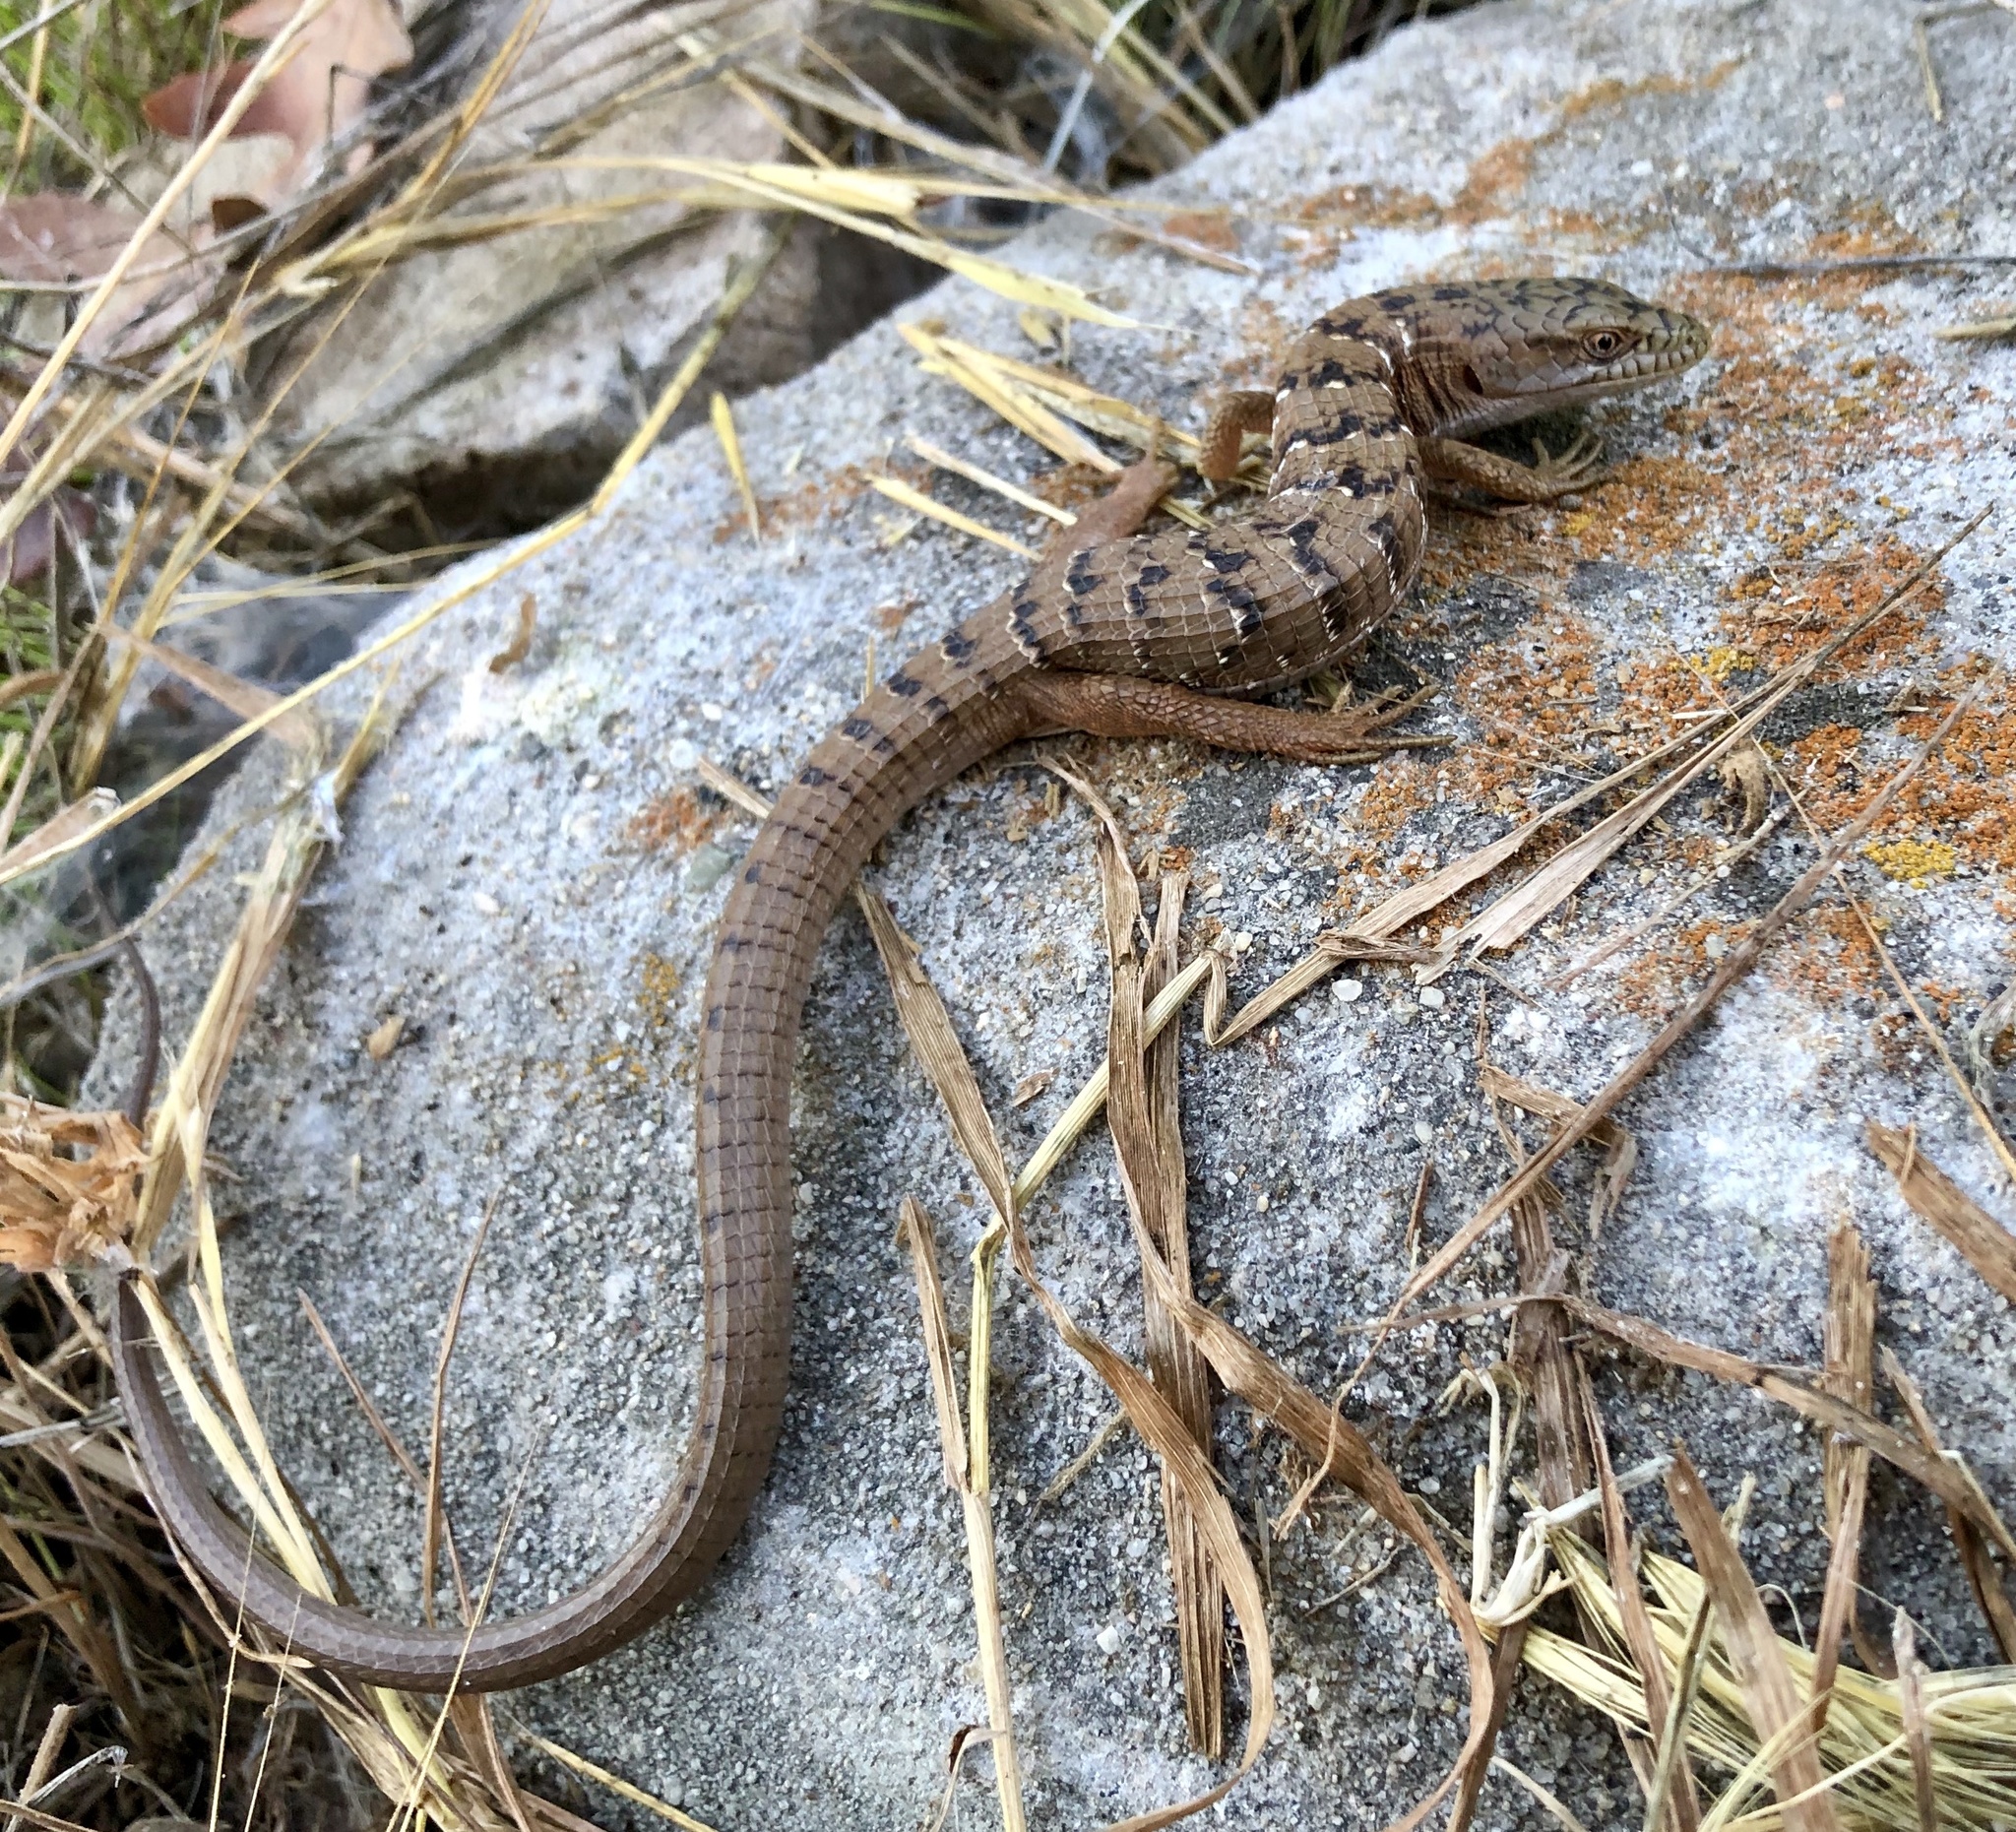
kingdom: Animalia
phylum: Chordata
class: Squamata
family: Anguidae
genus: Elgaria
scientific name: Elgaria multicarinata
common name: Southern alligator lizard
